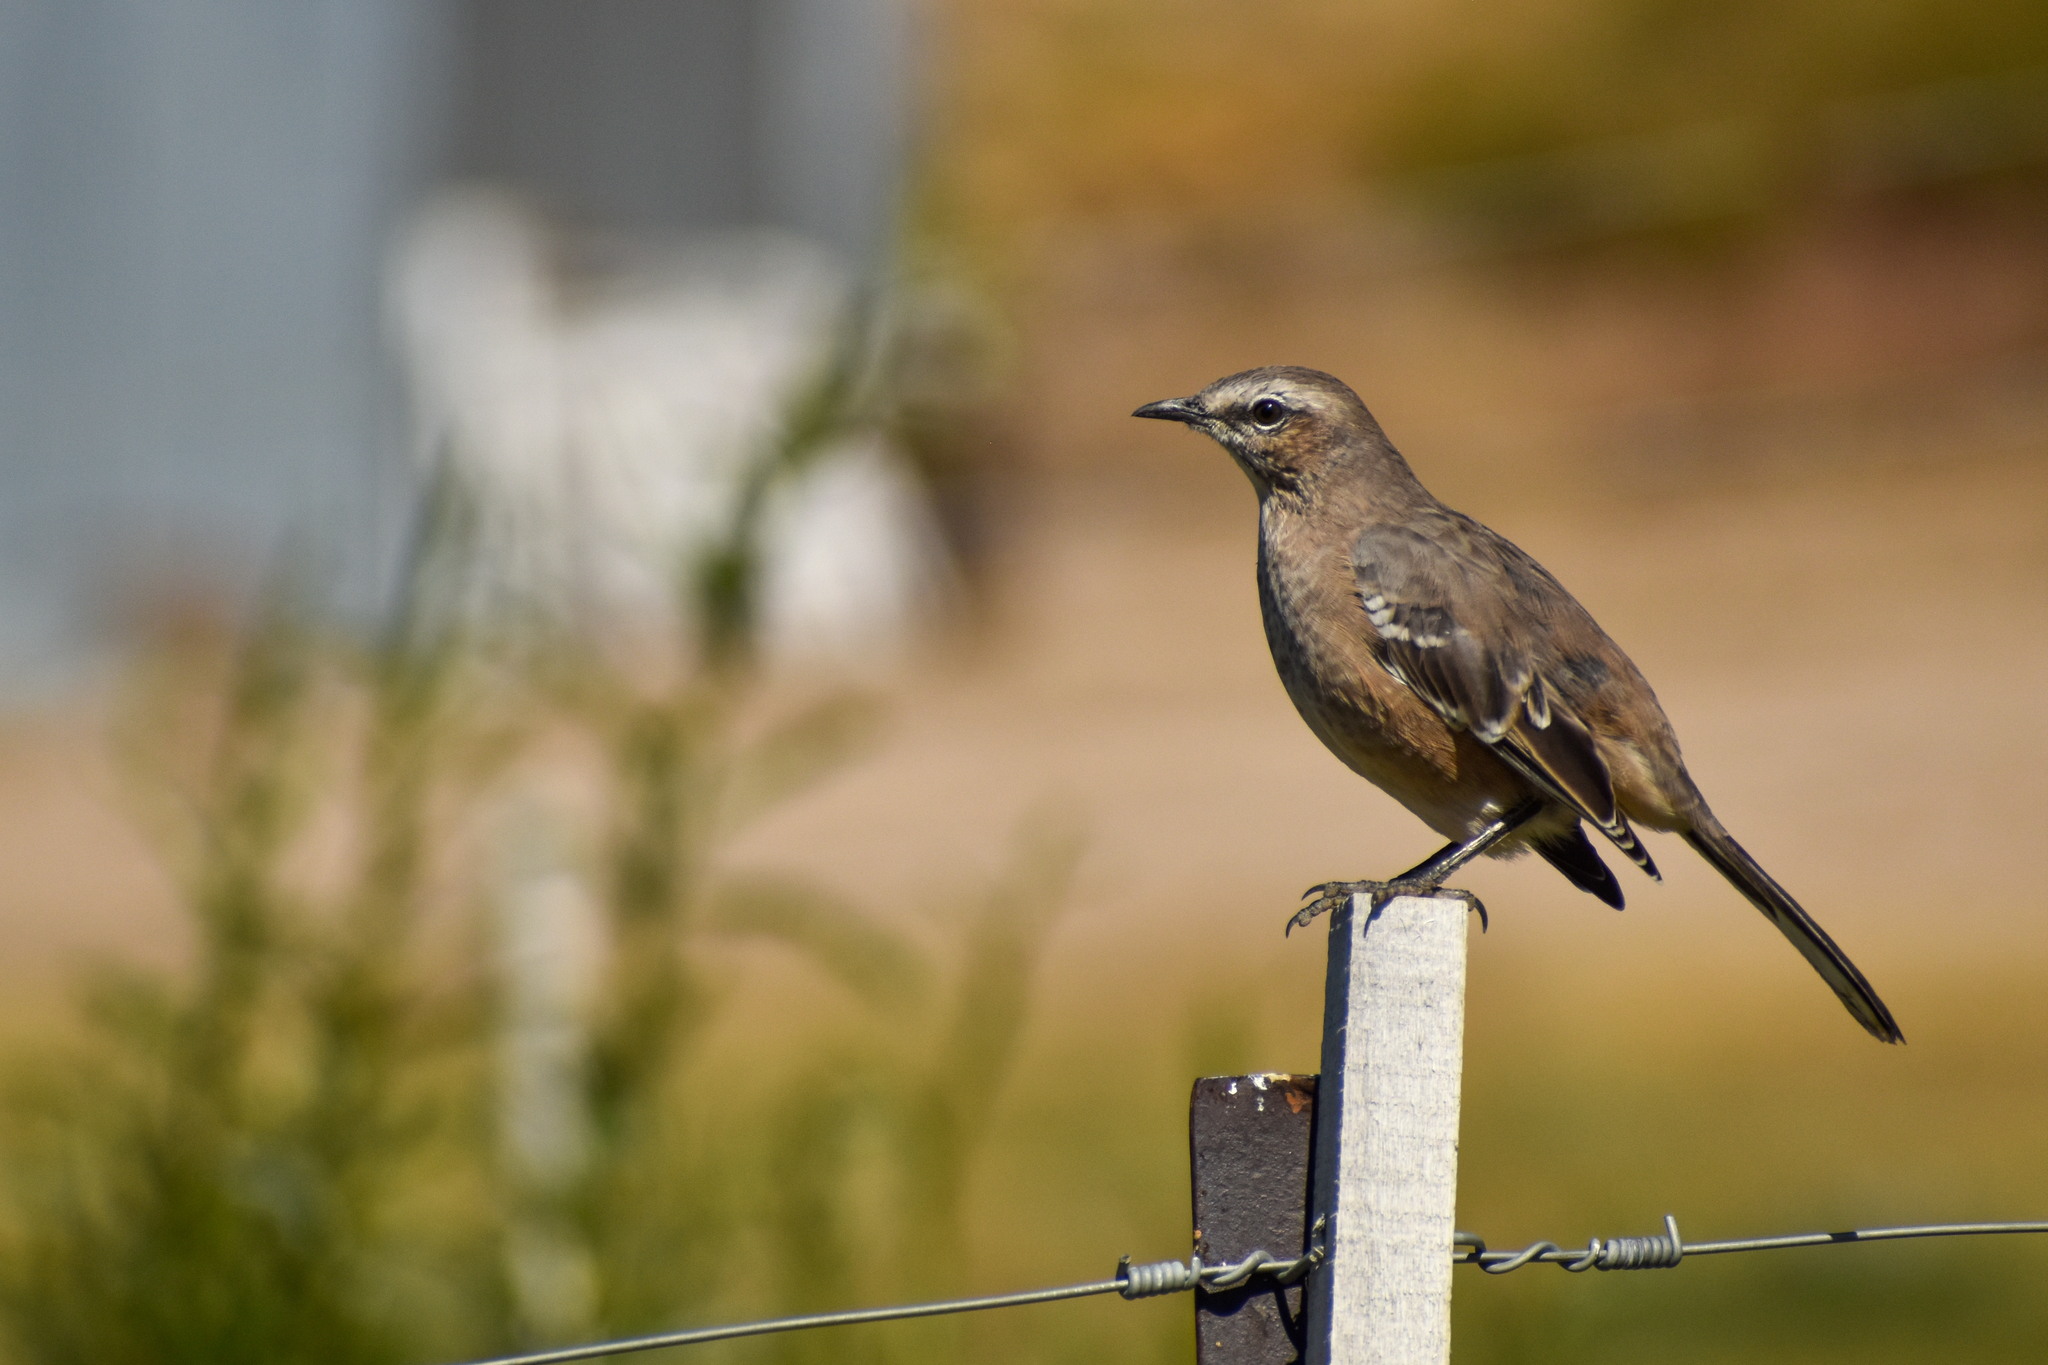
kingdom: Animalia
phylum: Chordata
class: Aves
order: Passeriformes
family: Mimidae
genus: Mimus
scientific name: Mimus patagonicus
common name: Patagonian mockingbird
